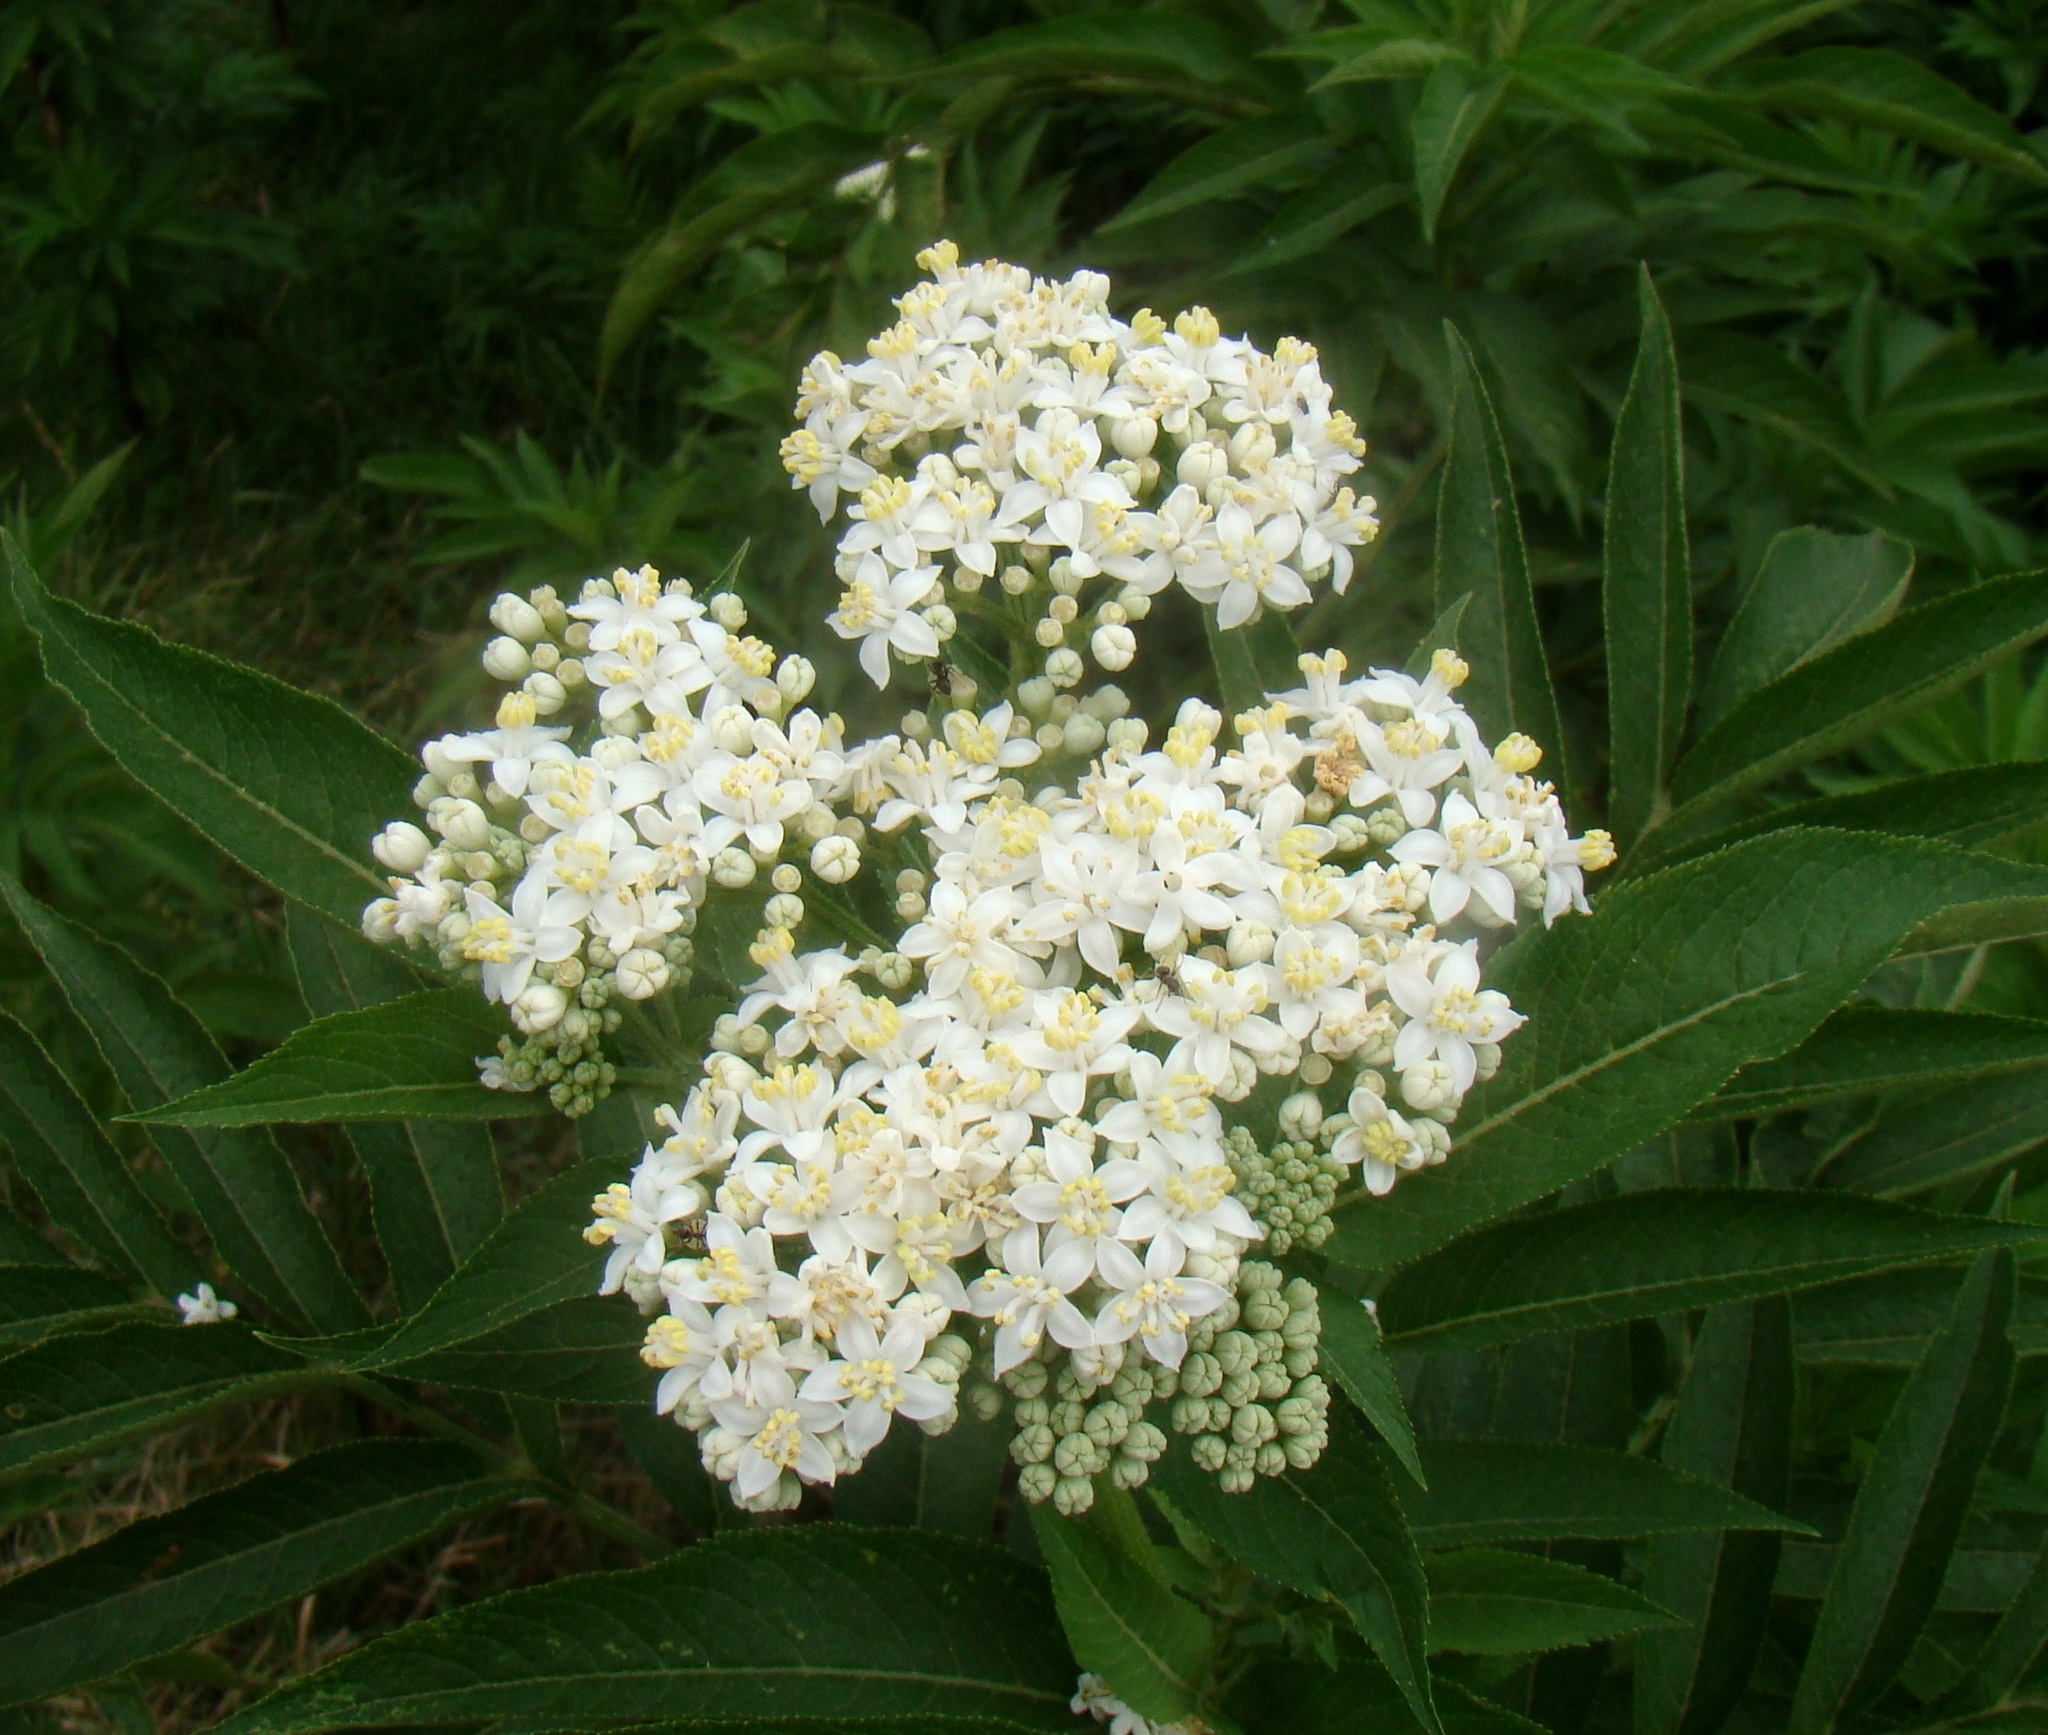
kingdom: Plantae
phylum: Tracheophyta
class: Magnoliopsida
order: Dipsacales
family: Viburnaceae
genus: Sambucus
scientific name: Sambucus ebulus
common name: Dwarf elder
